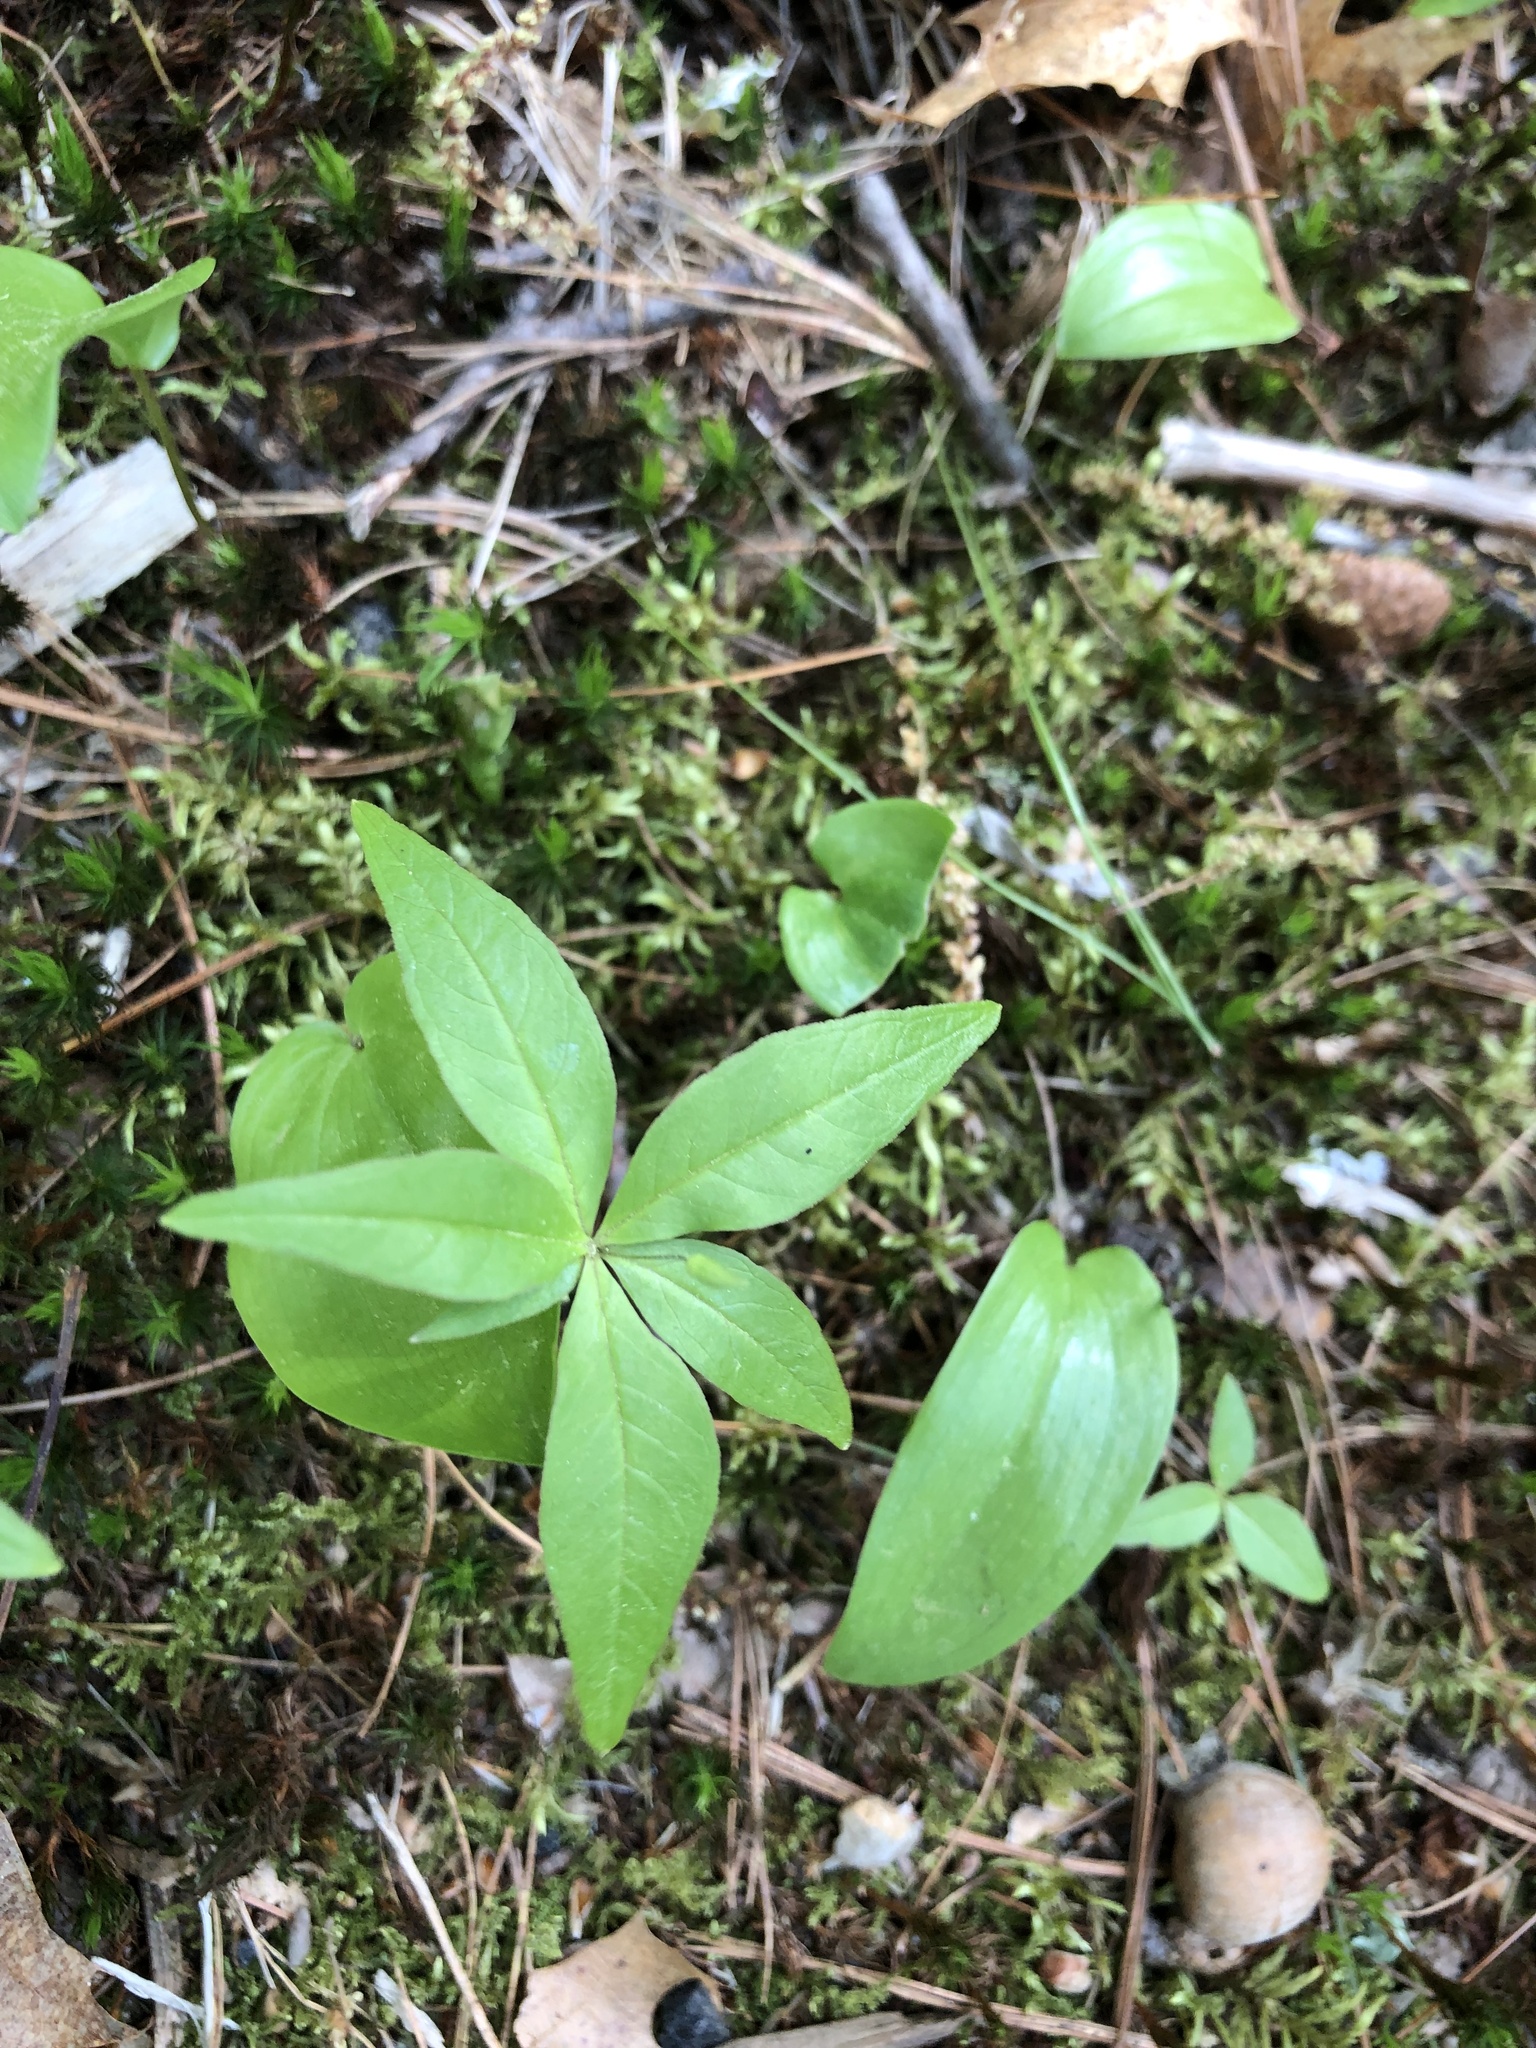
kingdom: Plantae
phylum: Tracheophyta
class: Magnoliopsida
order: Ericales
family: Primulaceae
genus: Lysimachia
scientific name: Lysimachia borealis
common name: American starflower
